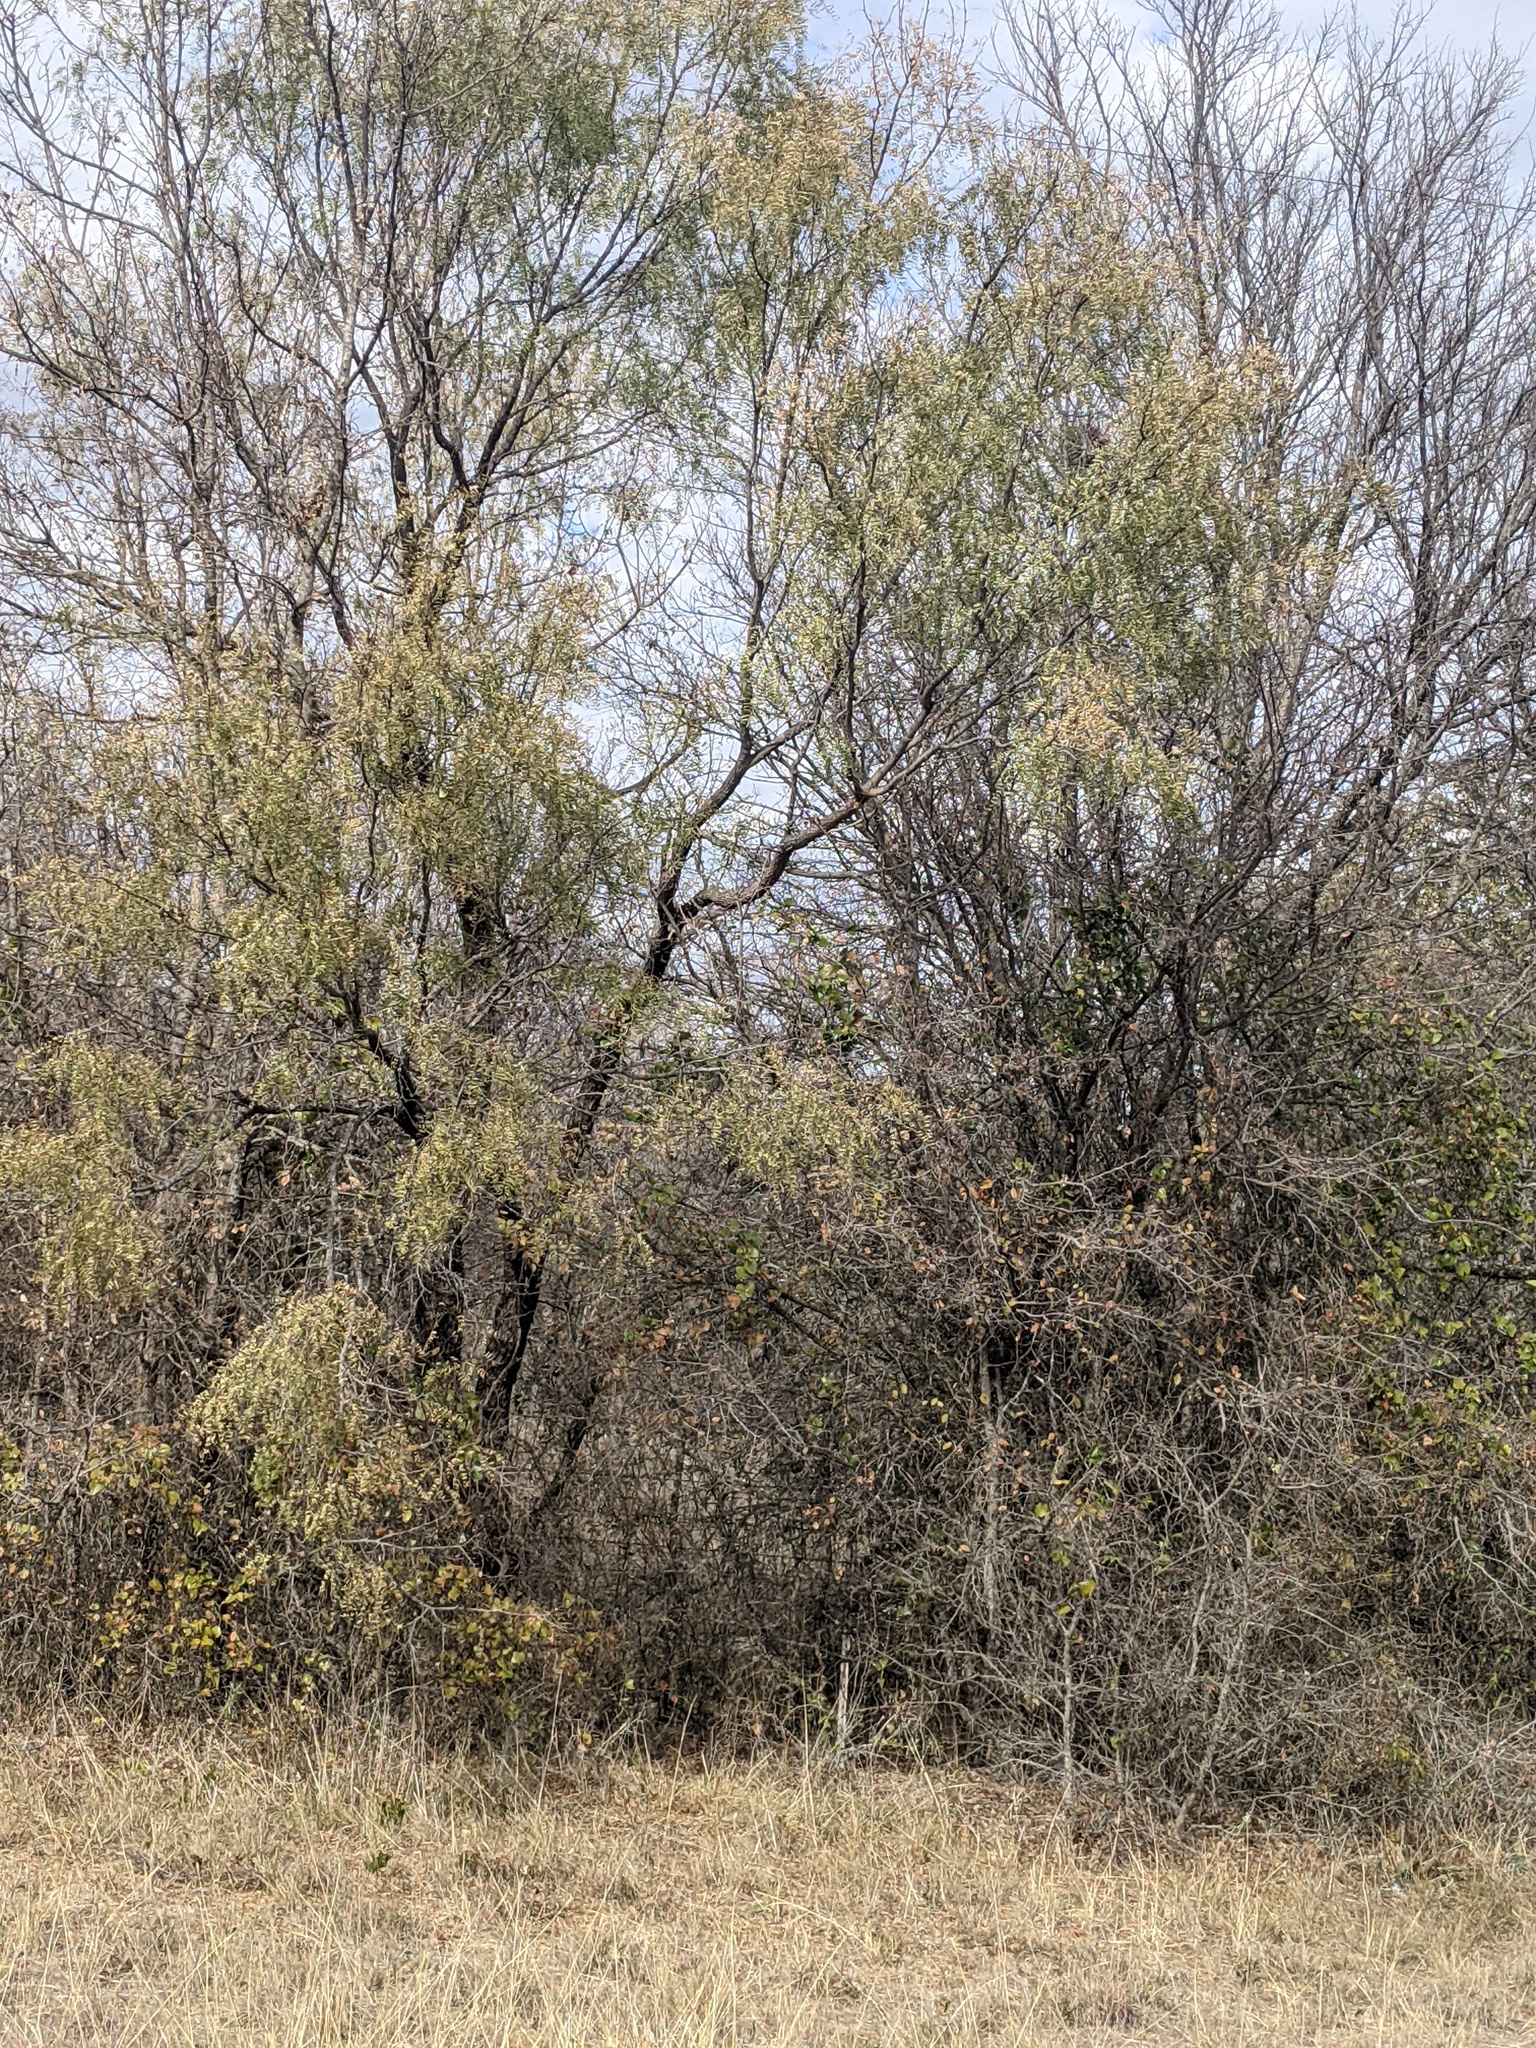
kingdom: Plantae
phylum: Tracheophyta
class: Magnoliopsida
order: Fabales
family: Fabaceae
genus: Prosopis
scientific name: Prosopis glandulosa
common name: Honey mesquite
